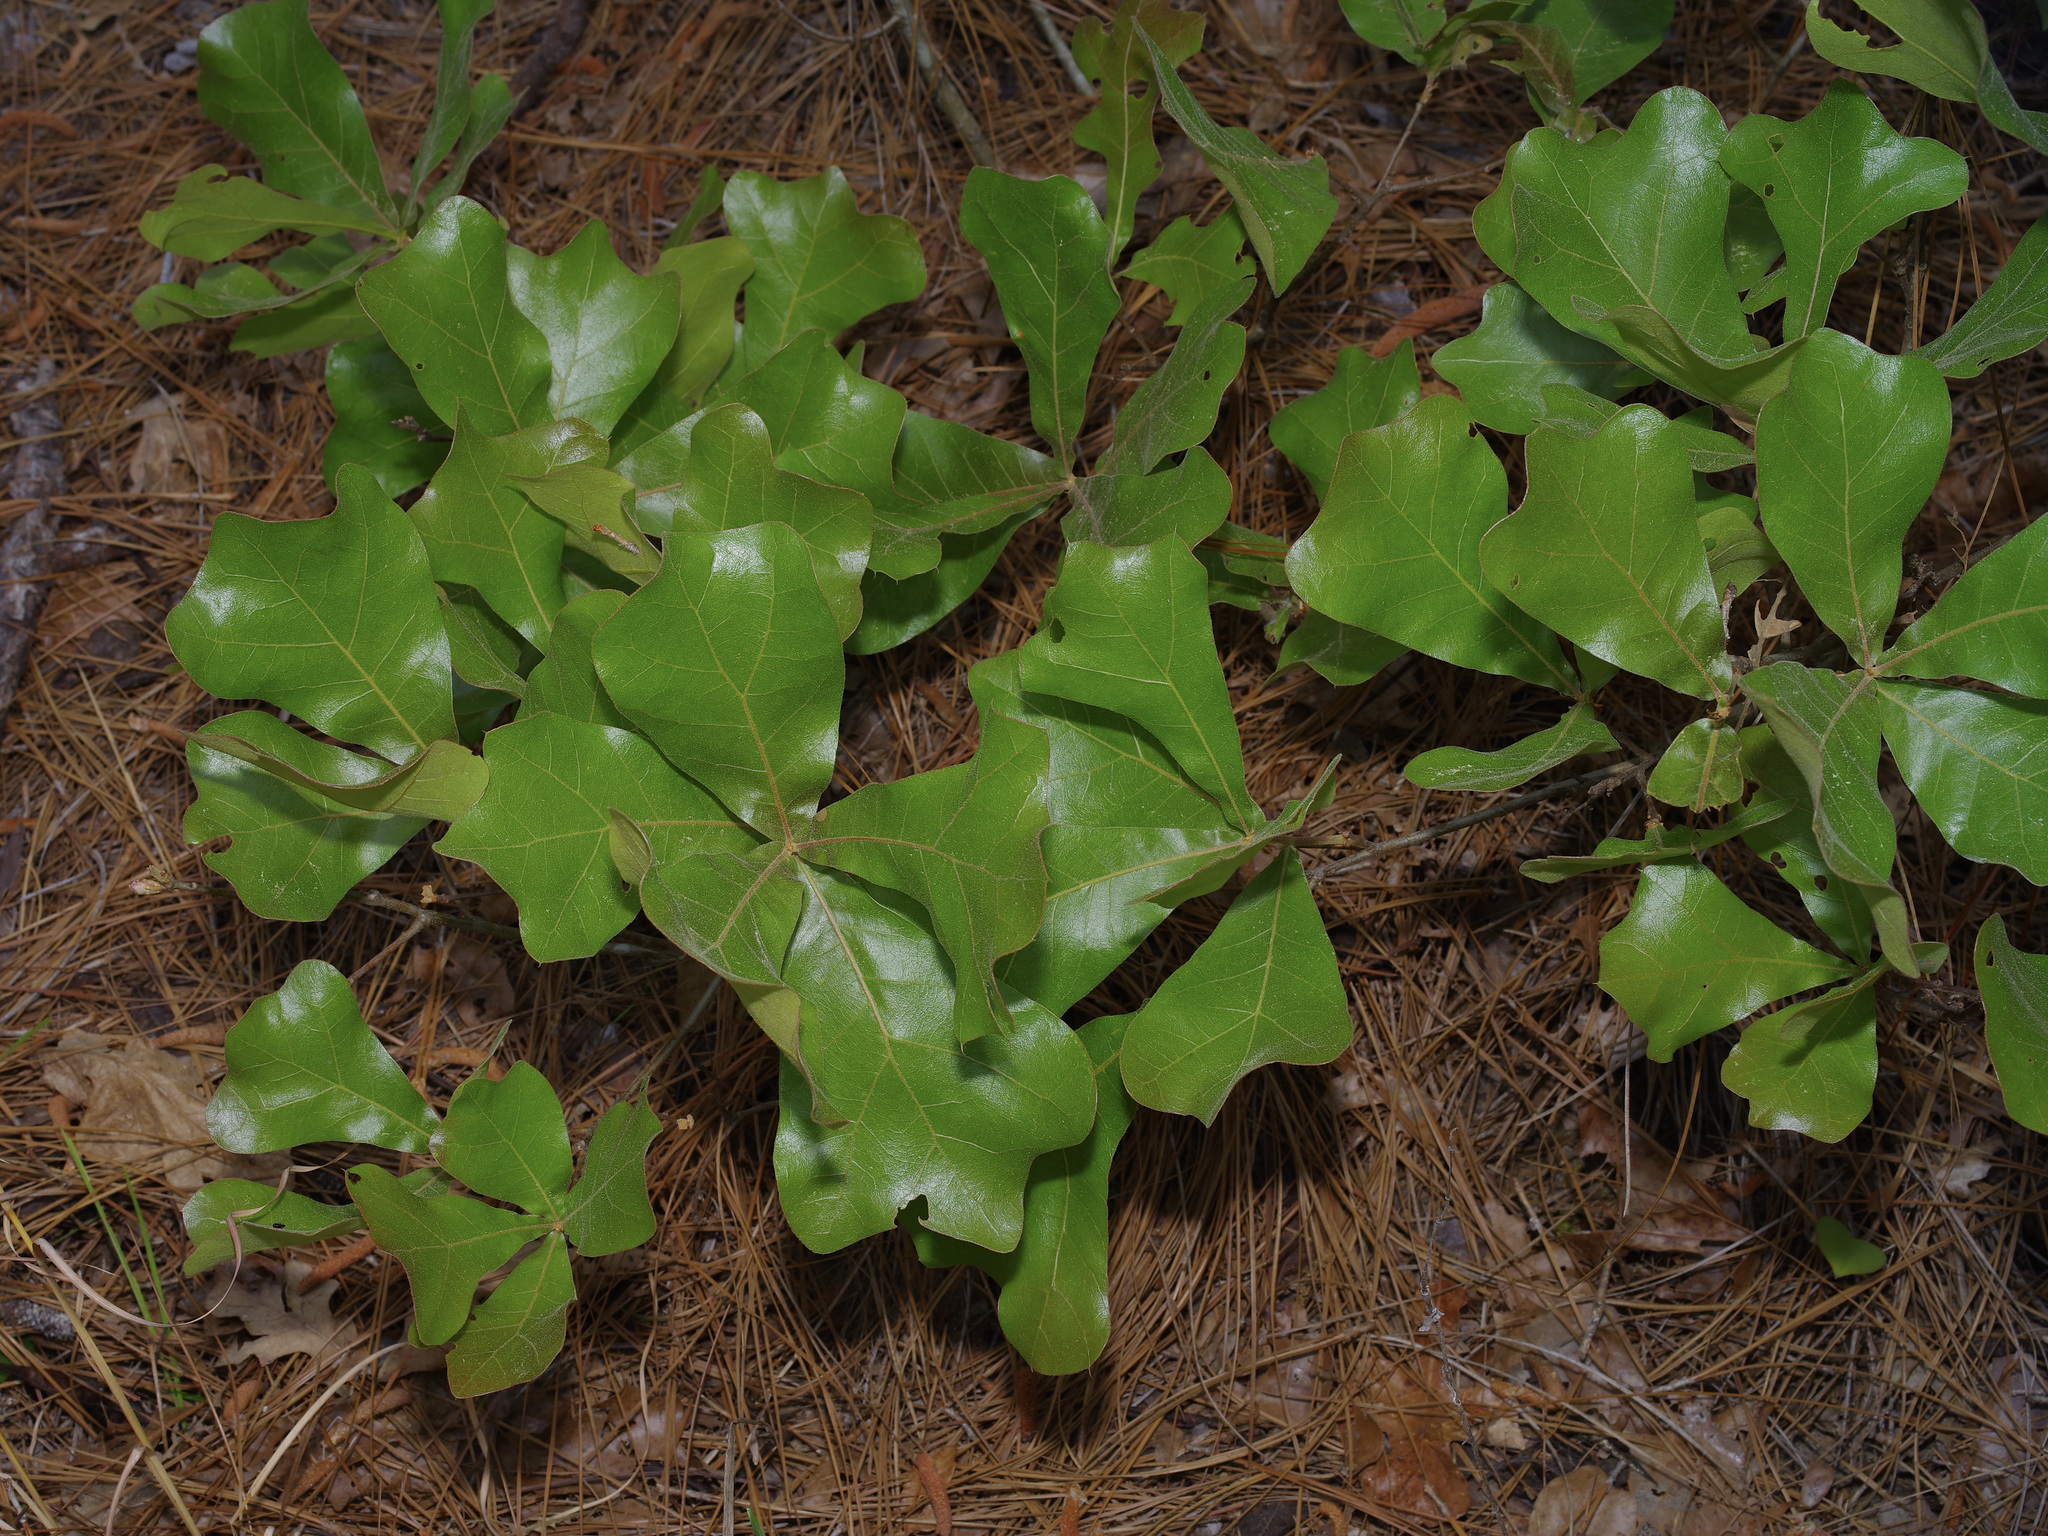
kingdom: Plantae
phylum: Tracheophyta
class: Magnoliopsida
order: Fagales
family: Fagaceae
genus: Quercus
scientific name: Quercus marilandica
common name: Blackjack oak
